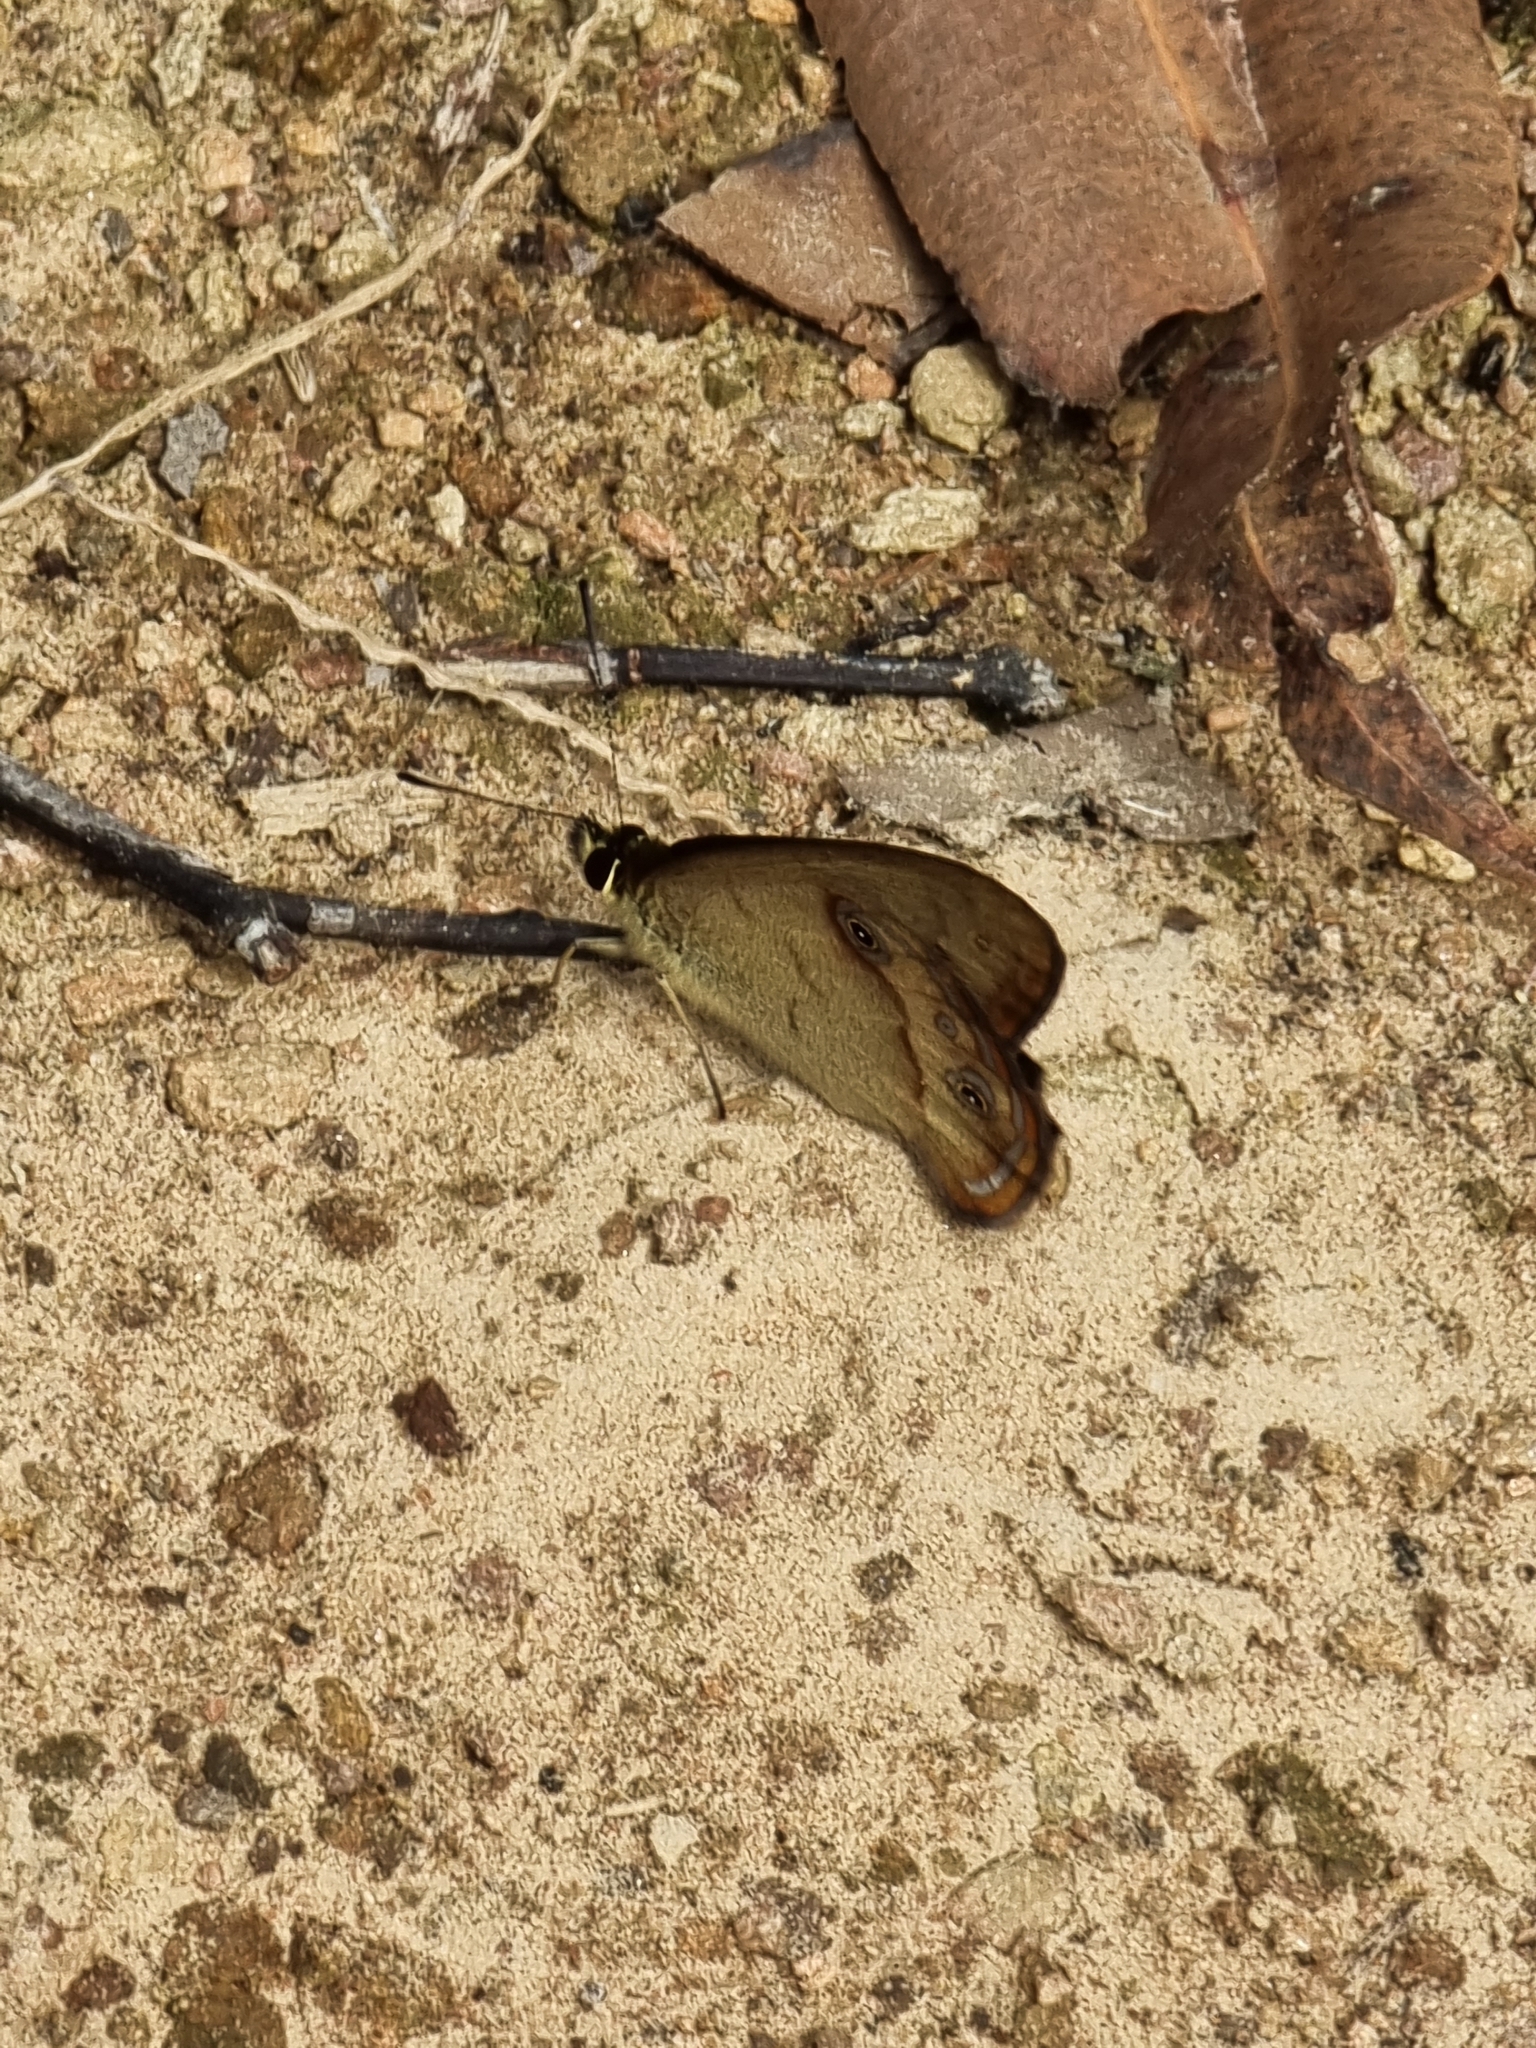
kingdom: Animalia
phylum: Arthropoda
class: Insecta
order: Lepidoptera
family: Nymphalidae
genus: Hypocysta
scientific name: Hypocysta metirius
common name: Brown ringlet
